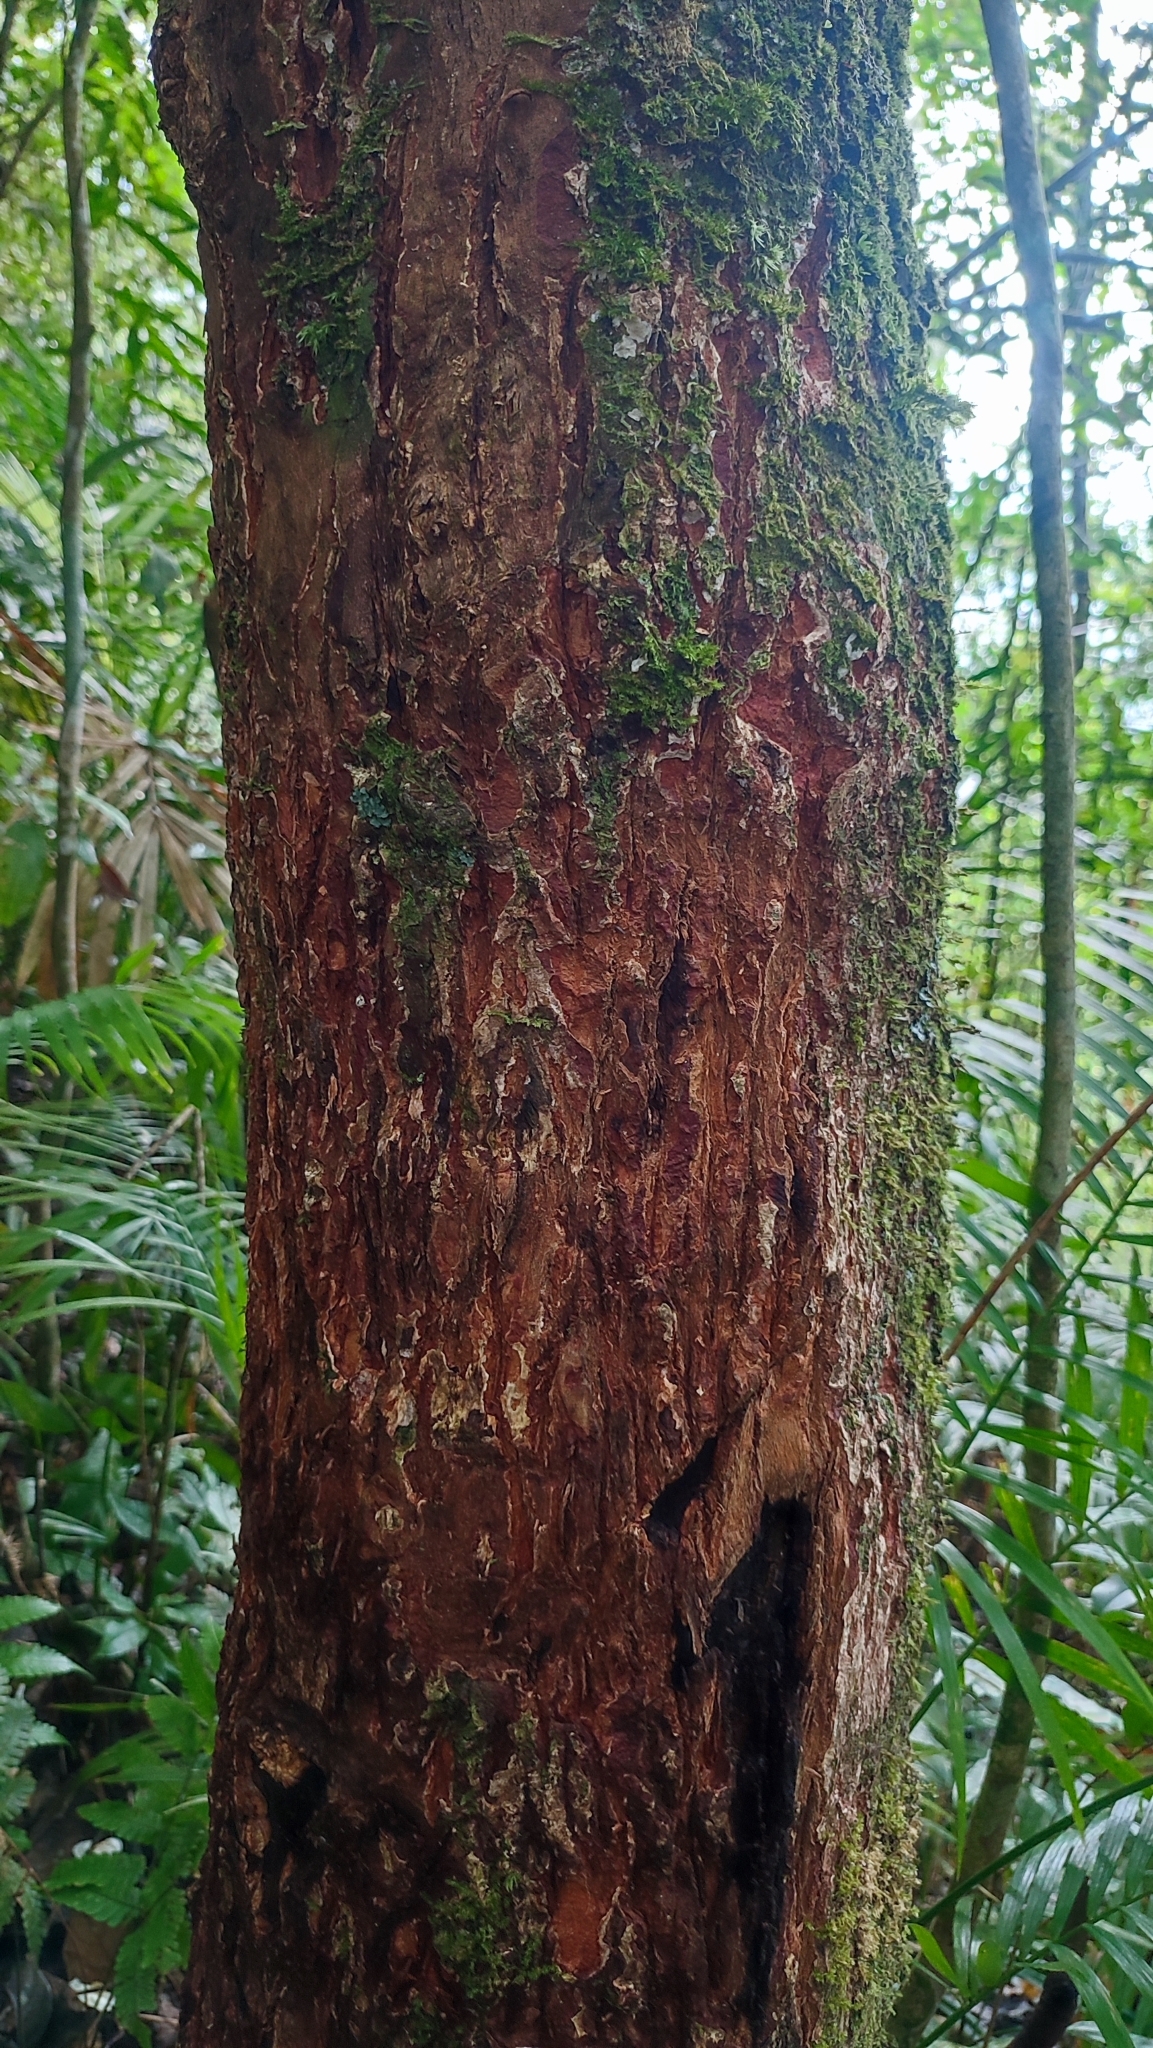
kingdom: Animalia
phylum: Chordata
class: Mammalia
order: Carnivora
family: Felidae
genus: Panthera
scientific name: Panthera pardus
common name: Leopard
